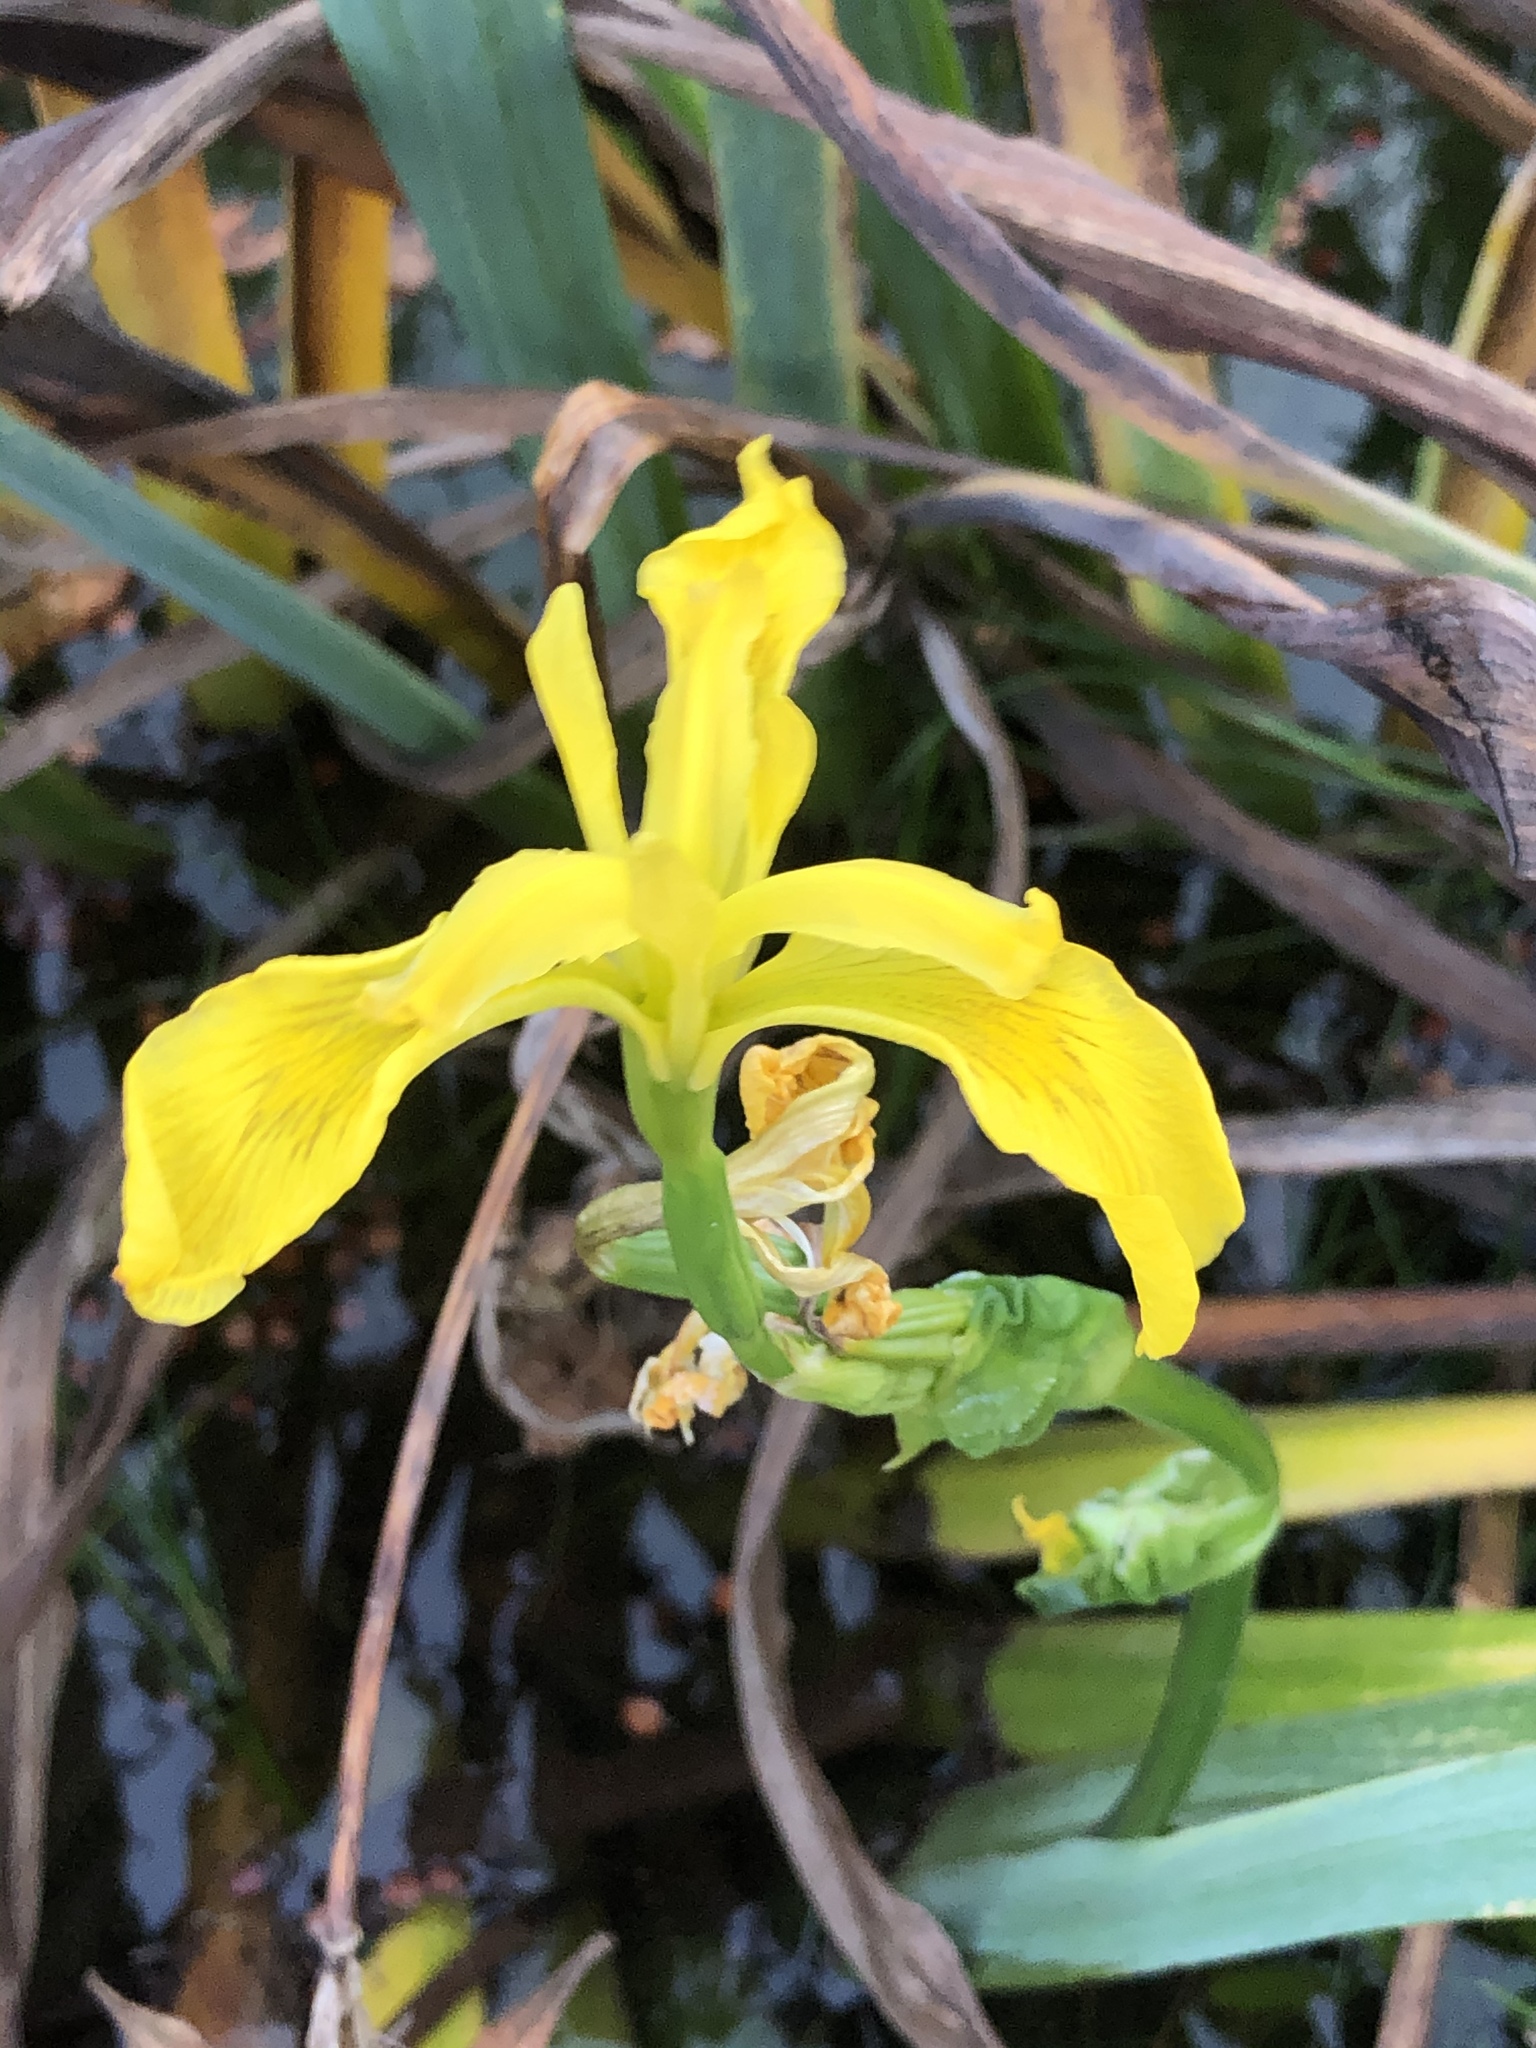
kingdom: Plantae
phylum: Tracheophyta
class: Liliopsida
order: Asparagales
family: Iridaceae
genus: Iris
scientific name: Iris pseudacorus
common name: Yellow flag
